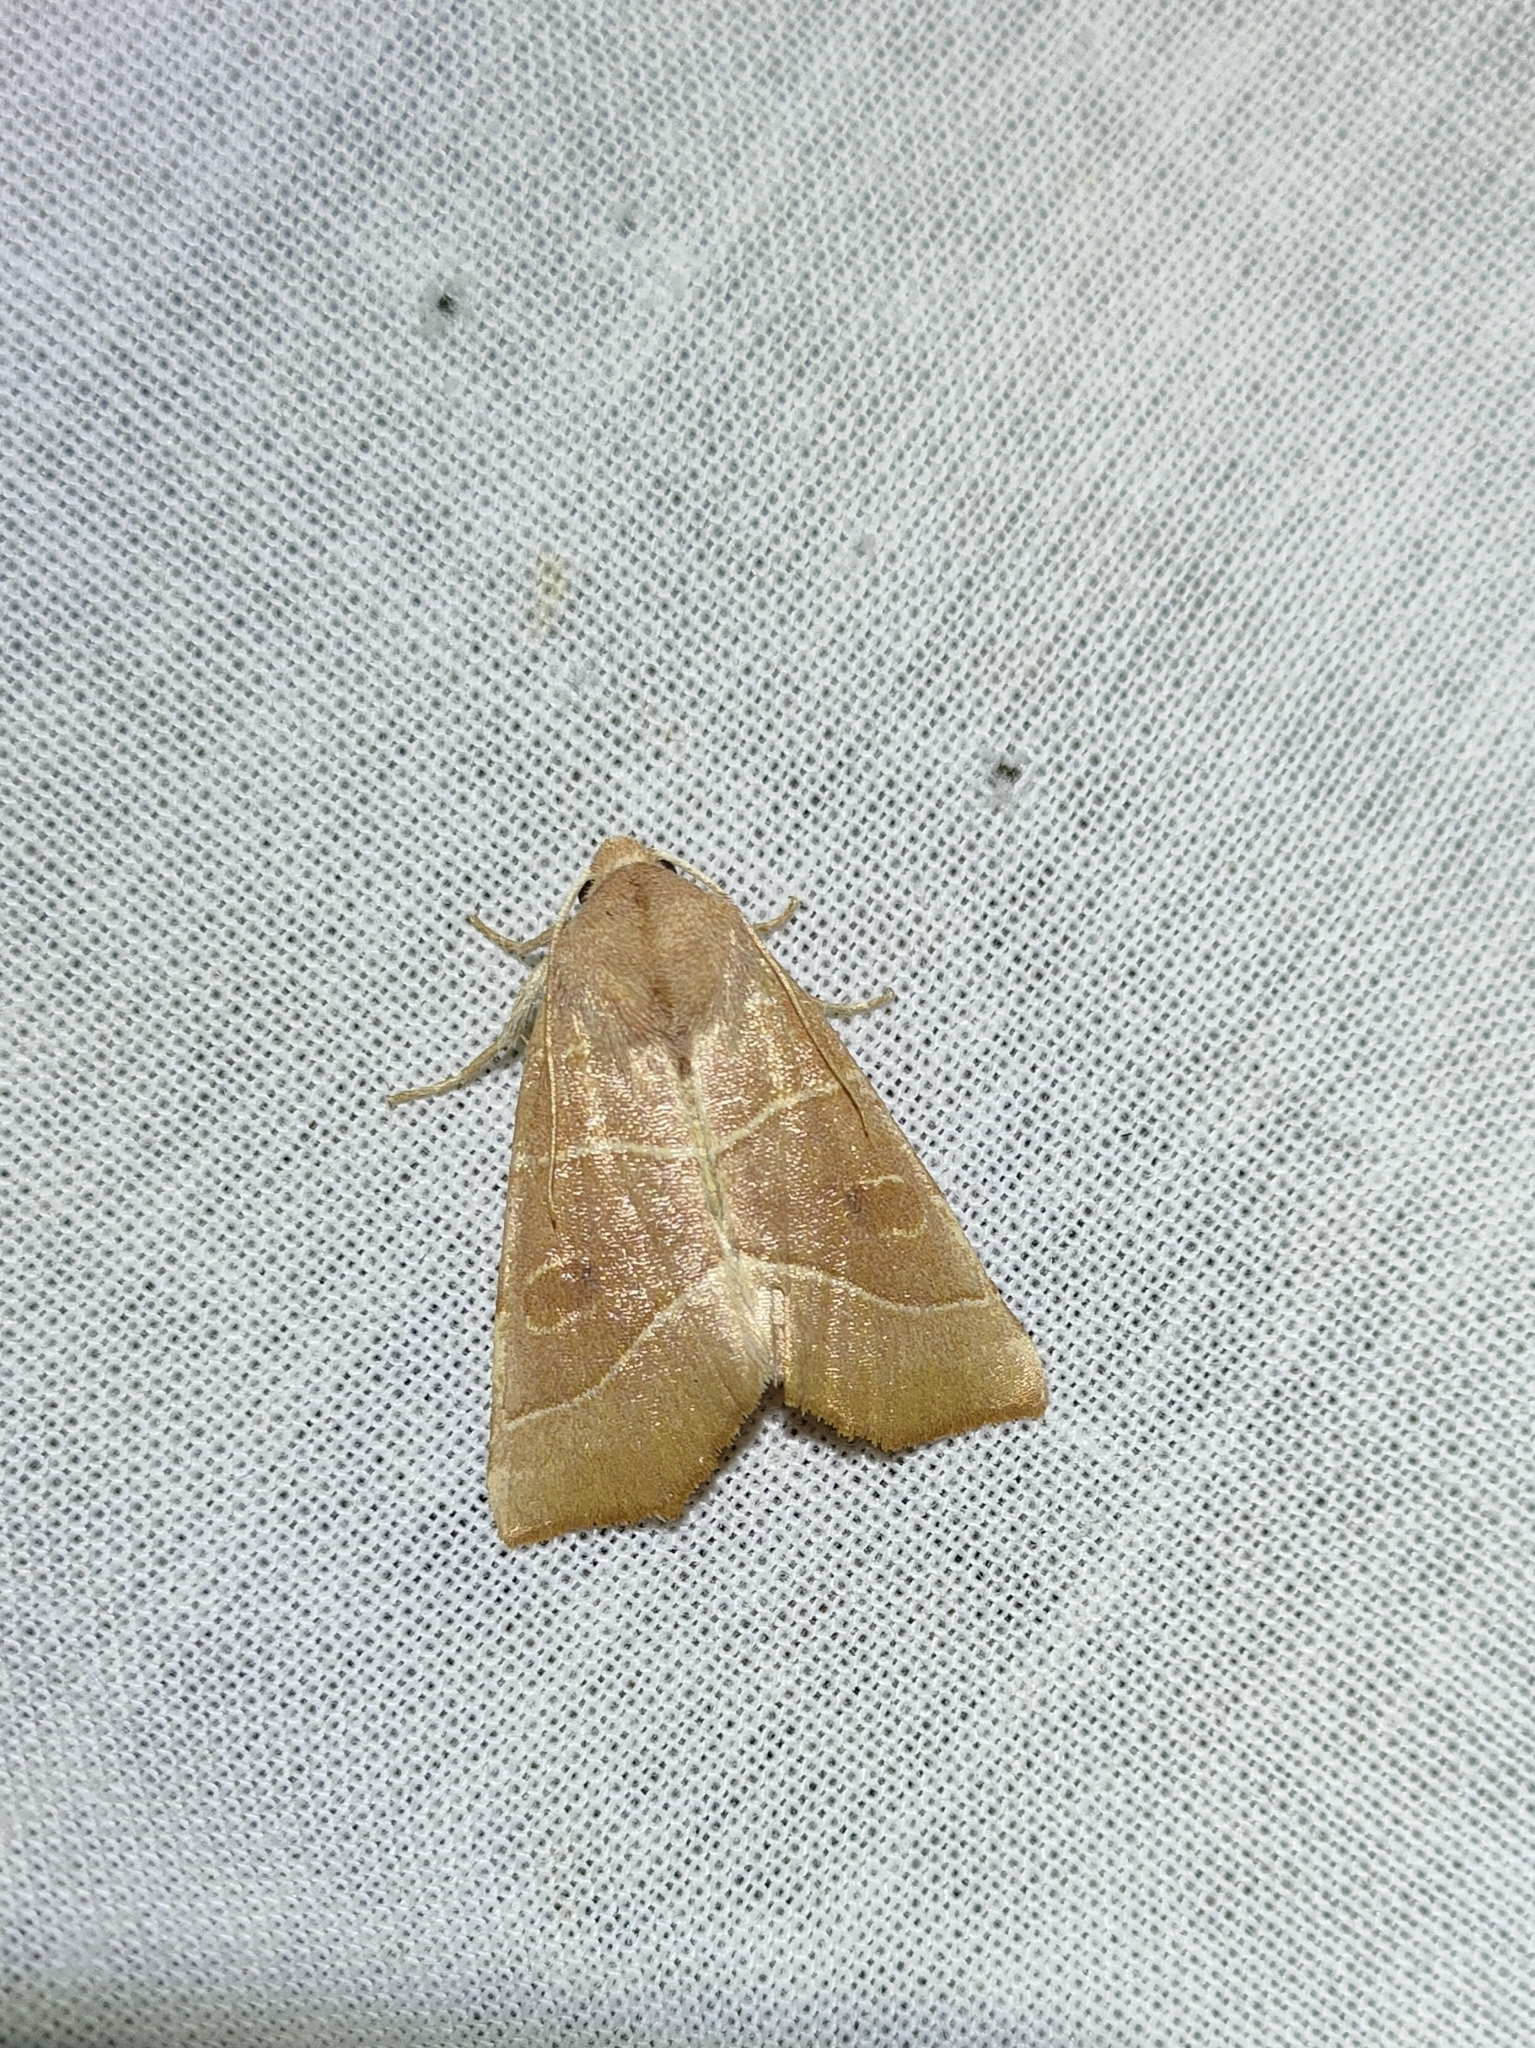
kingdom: Animalia
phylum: Arthropoda
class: Insecta
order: Lepidoptera
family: Noctuidae
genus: Atethmia
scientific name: Atethmia algirica
